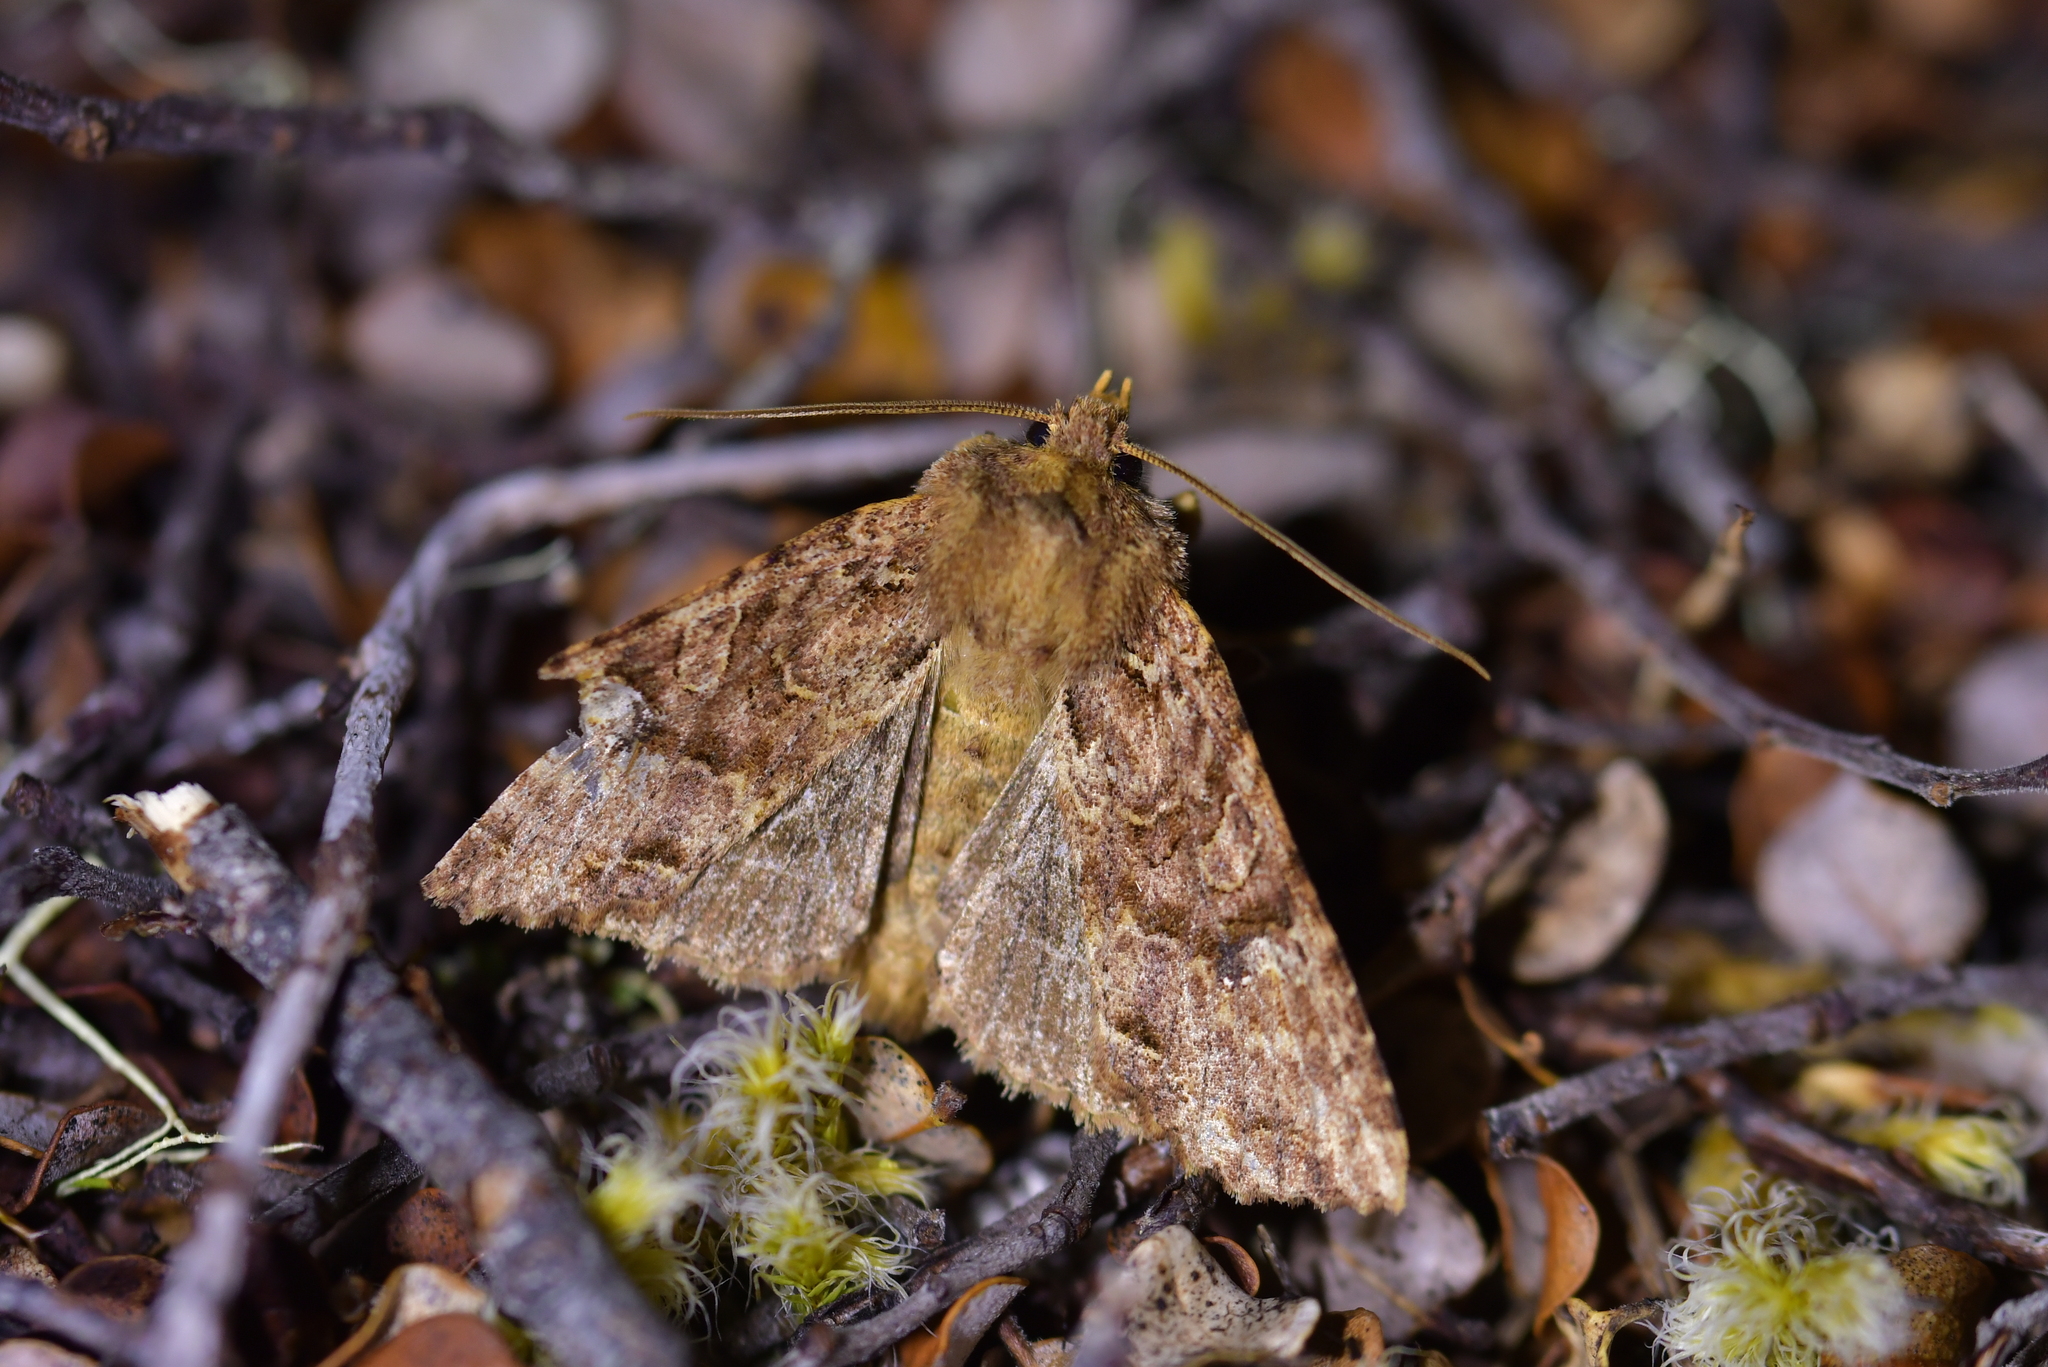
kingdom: Animalia
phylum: Arthropoda
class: Insecta
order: Lepidoptera
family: Noctuidae
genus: Meterana
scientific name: Meterana
